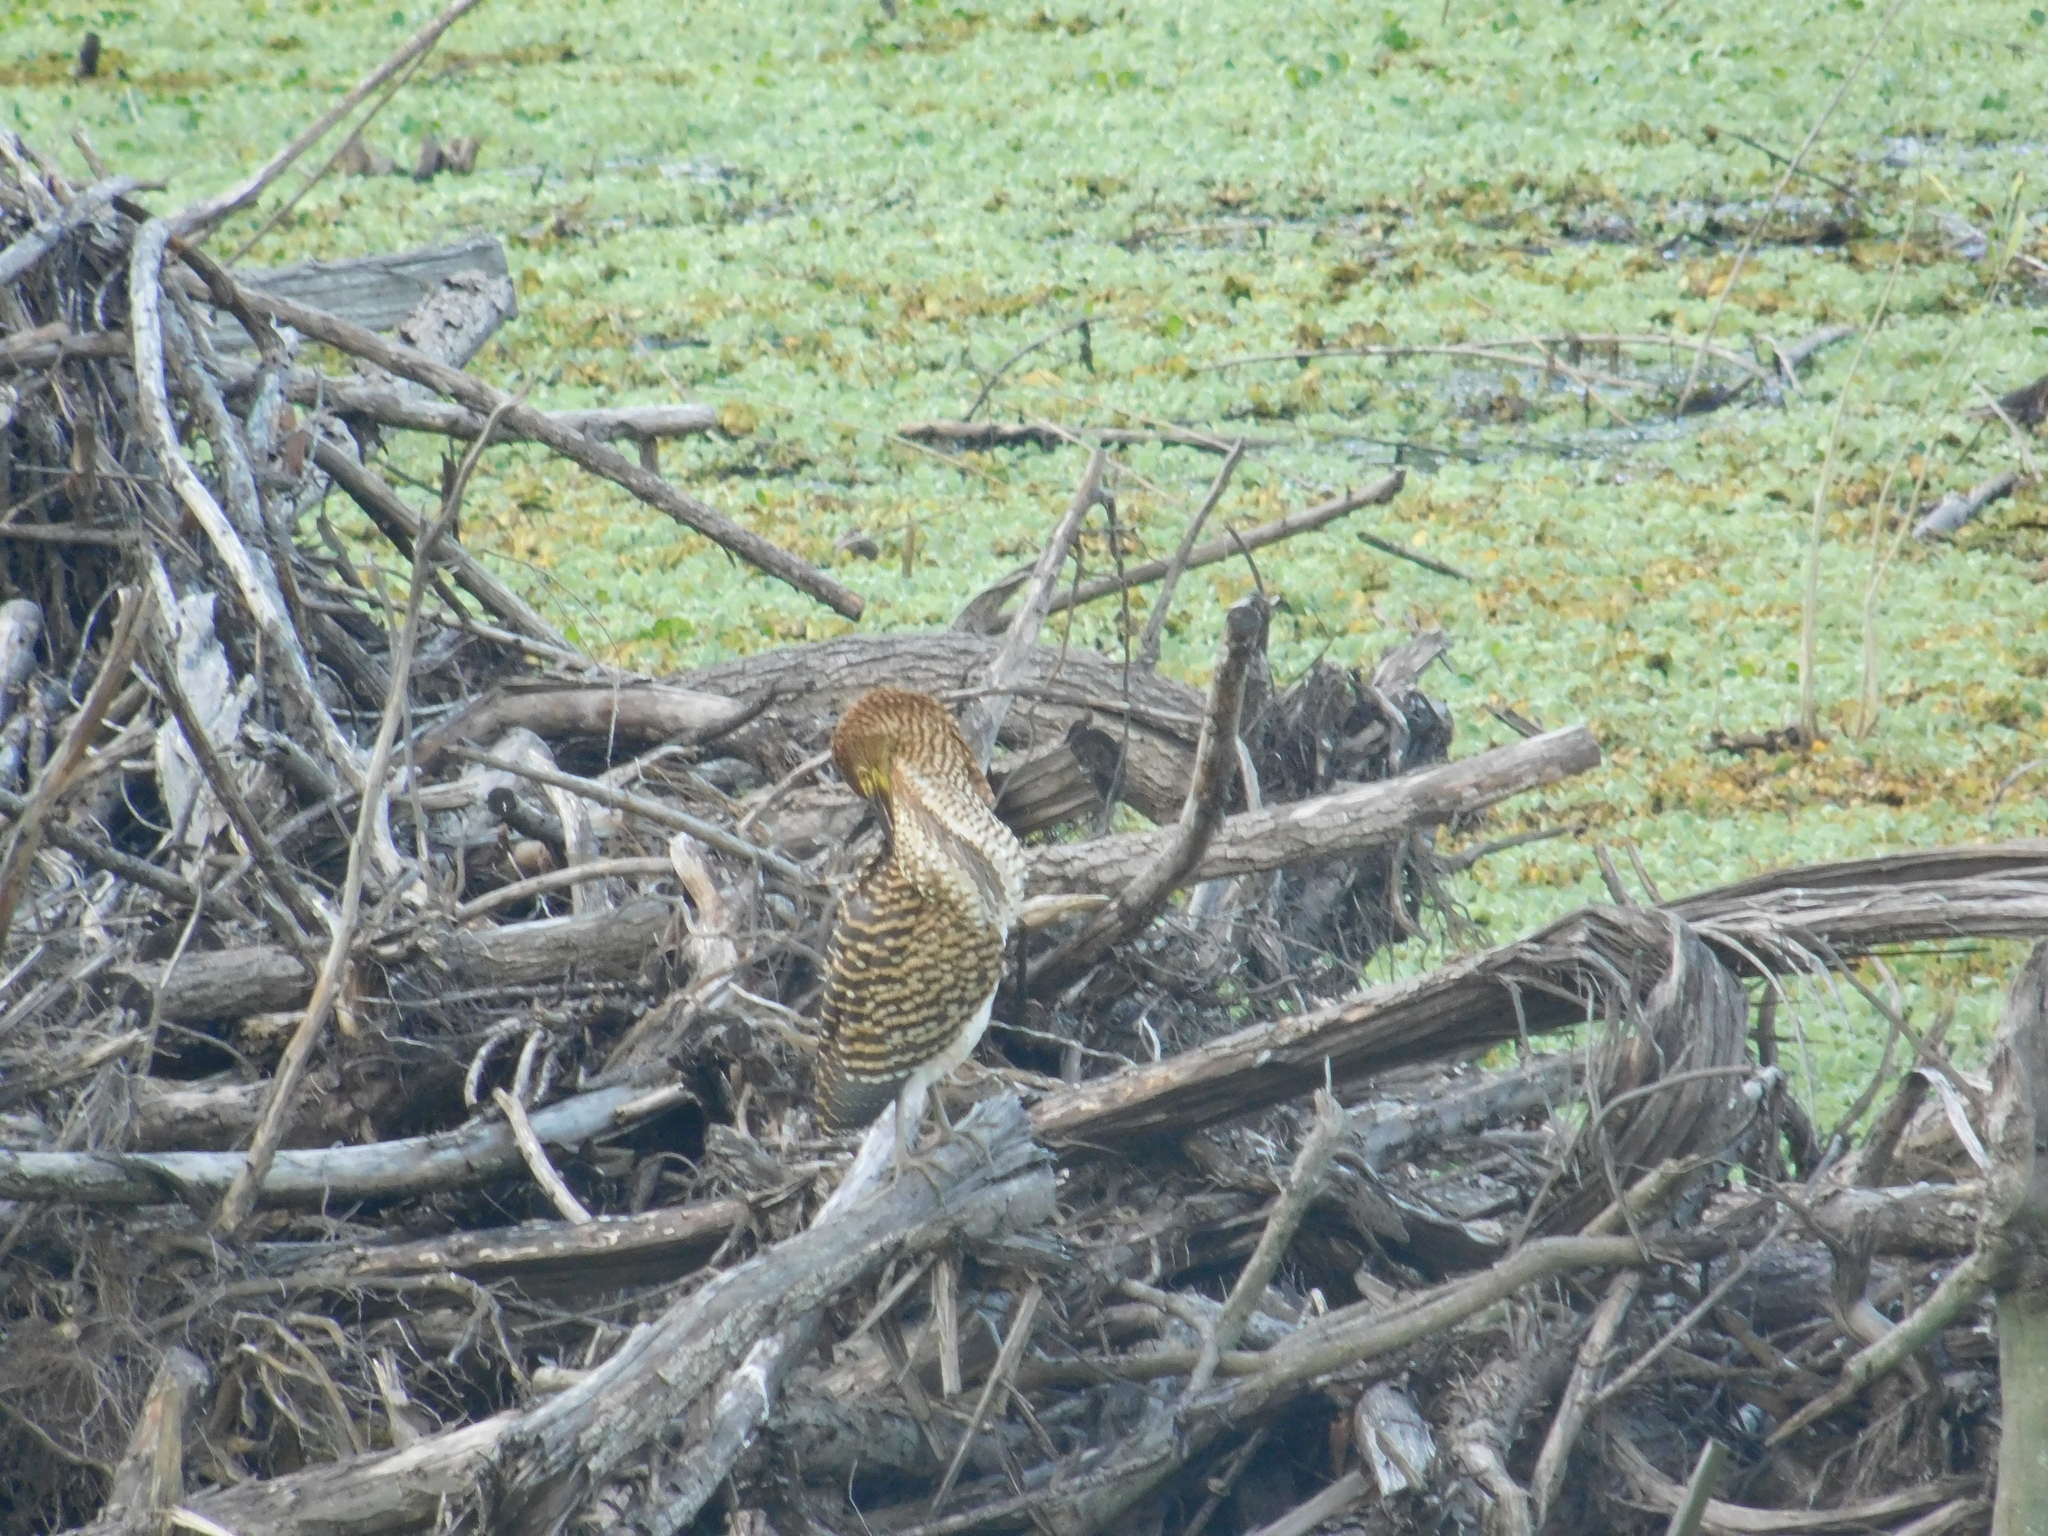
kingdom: Animalia
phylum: Chordata
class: Aves
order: Pelecaniformes
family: Ardeidae
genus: Tigrisoma
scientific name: Tigrisoma lineatum
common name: Rufescent tiger-heron
